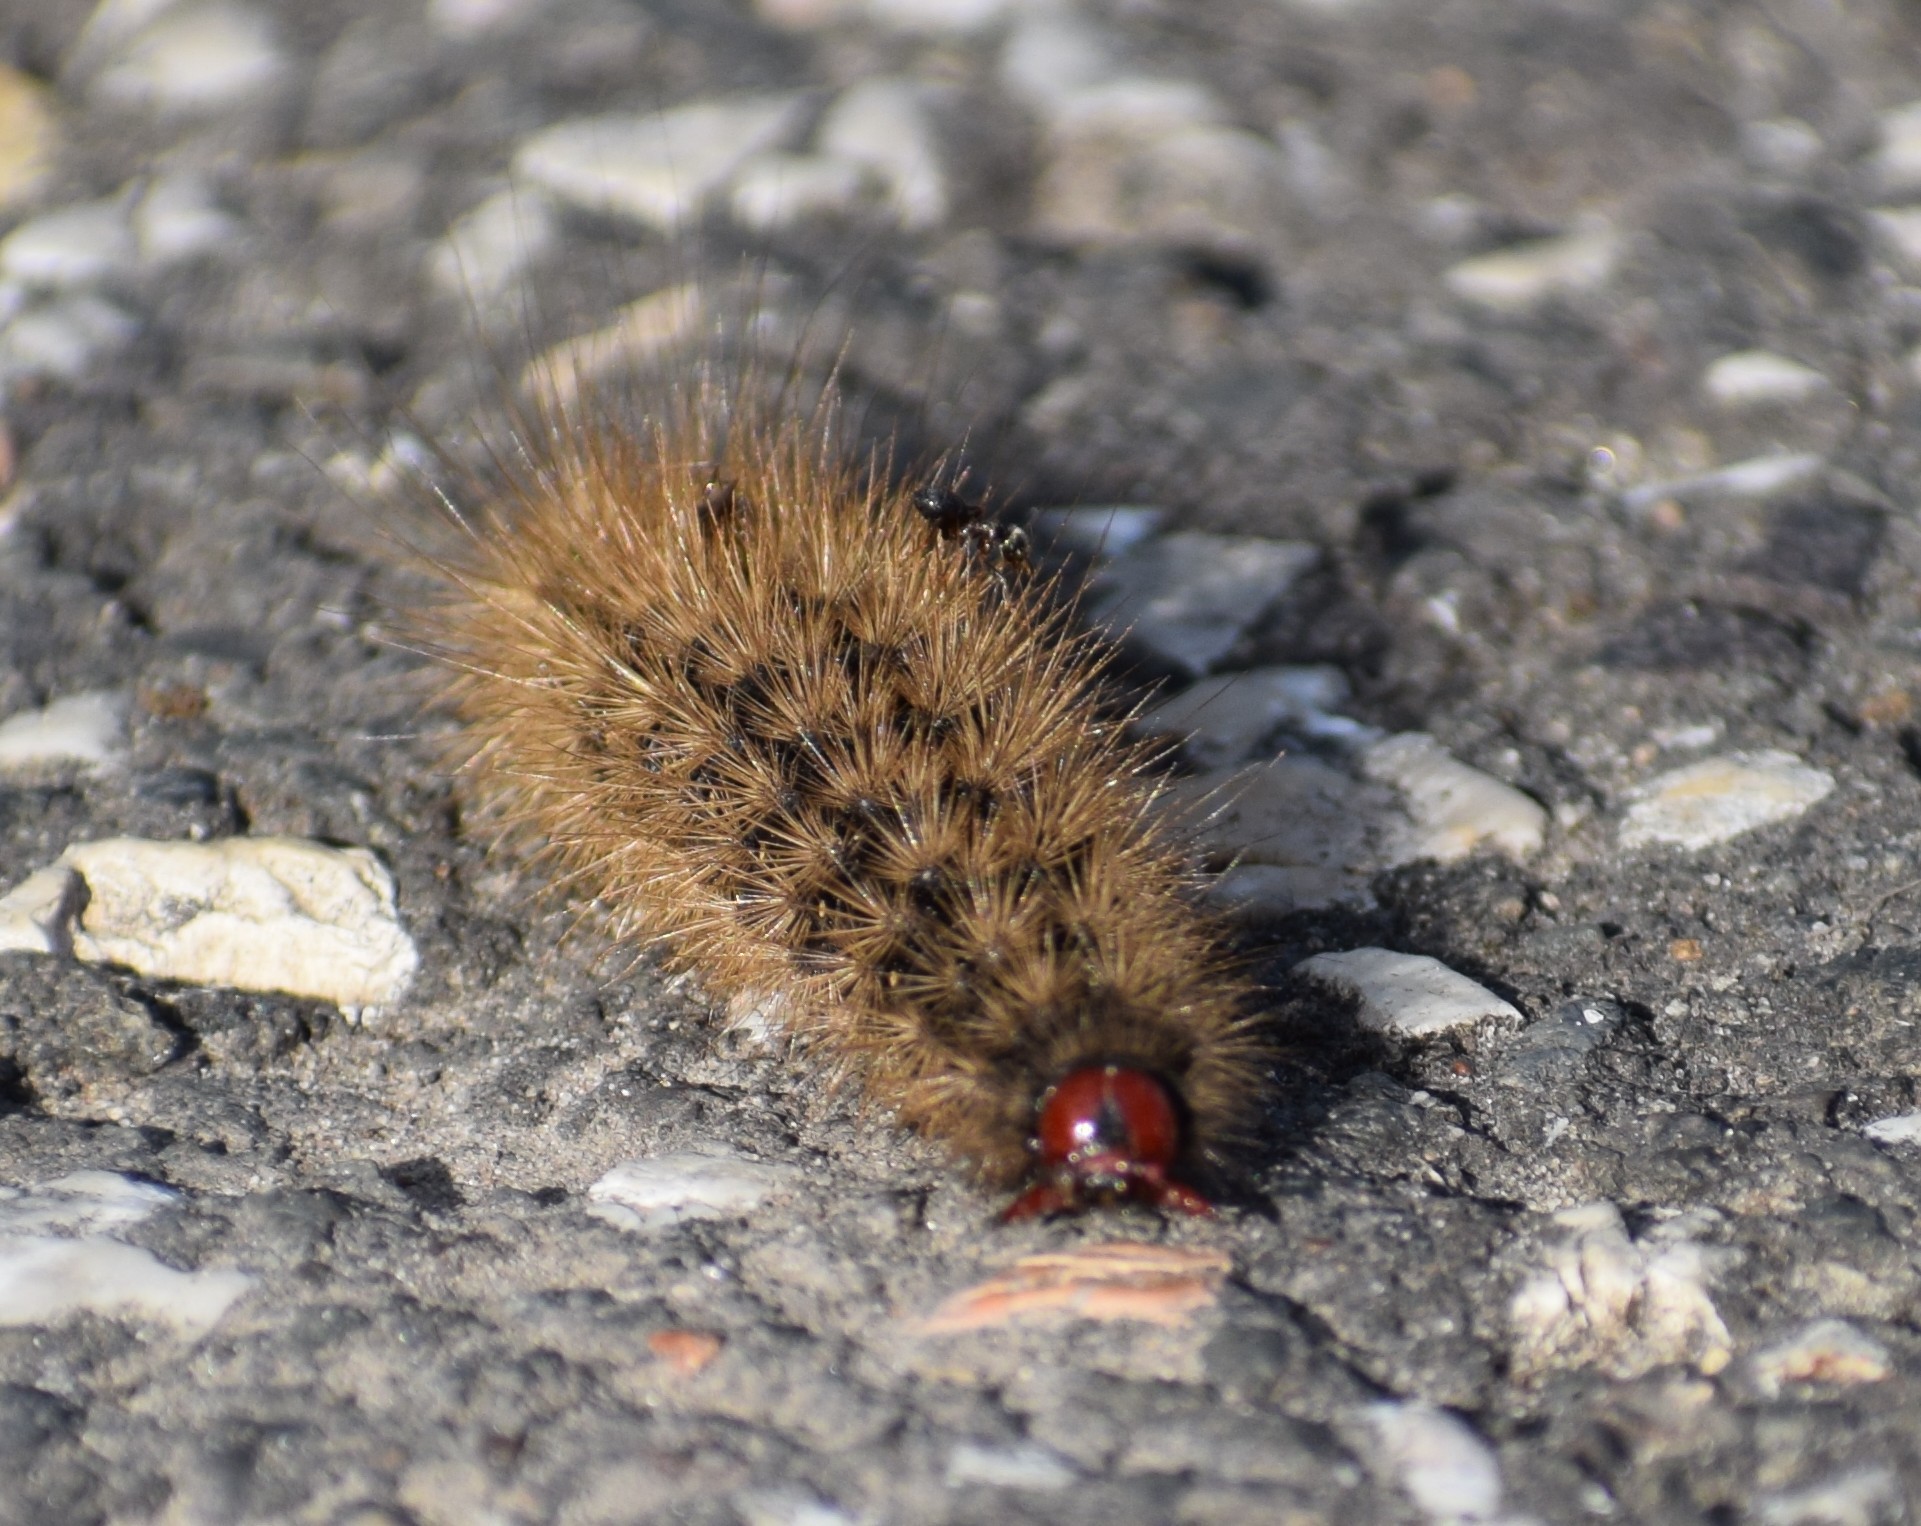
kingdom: Animalia
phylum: Arthropoda
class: Insecta
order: Lepidoptera
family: Erebidae
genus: Epicallia
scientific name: Epicallia villica
